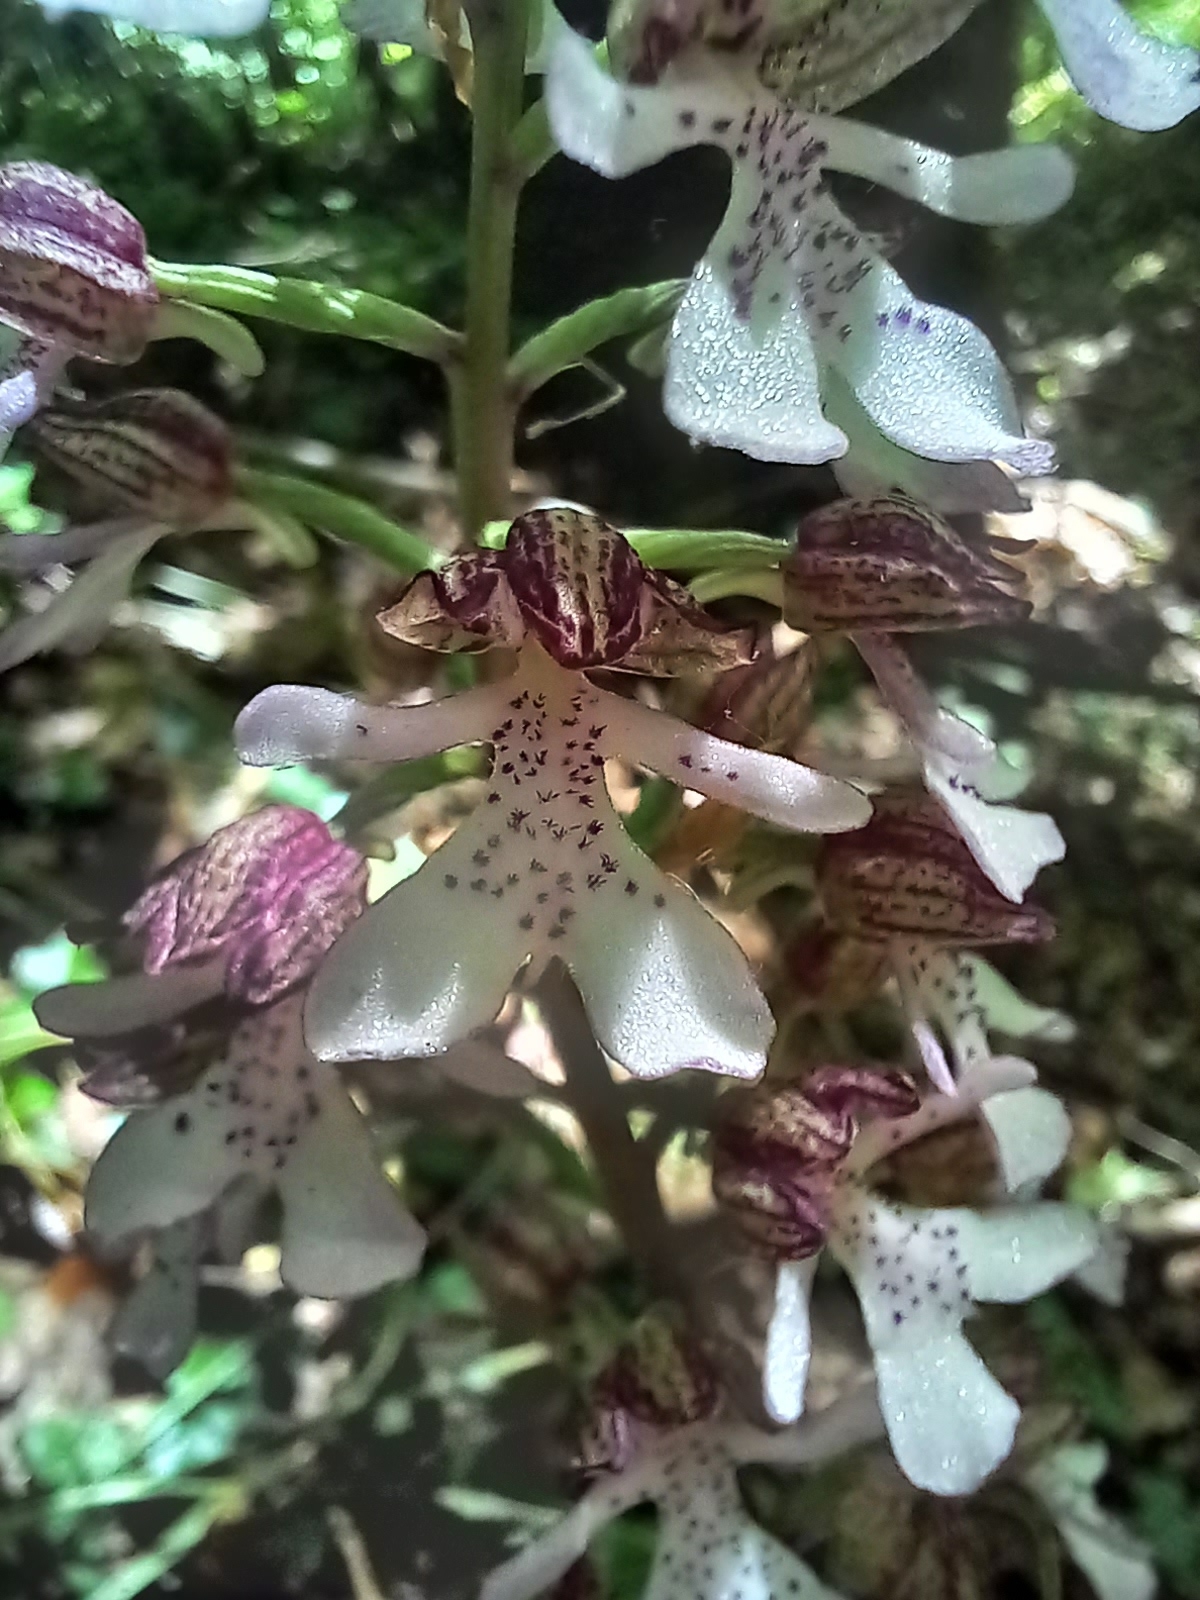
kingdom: Plantae
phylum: Tracheophyta
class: Liliopsida
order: Asparagales
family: Orchidaceae
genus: Orchis
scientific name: Orchis purpurea
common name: Lady orchid
